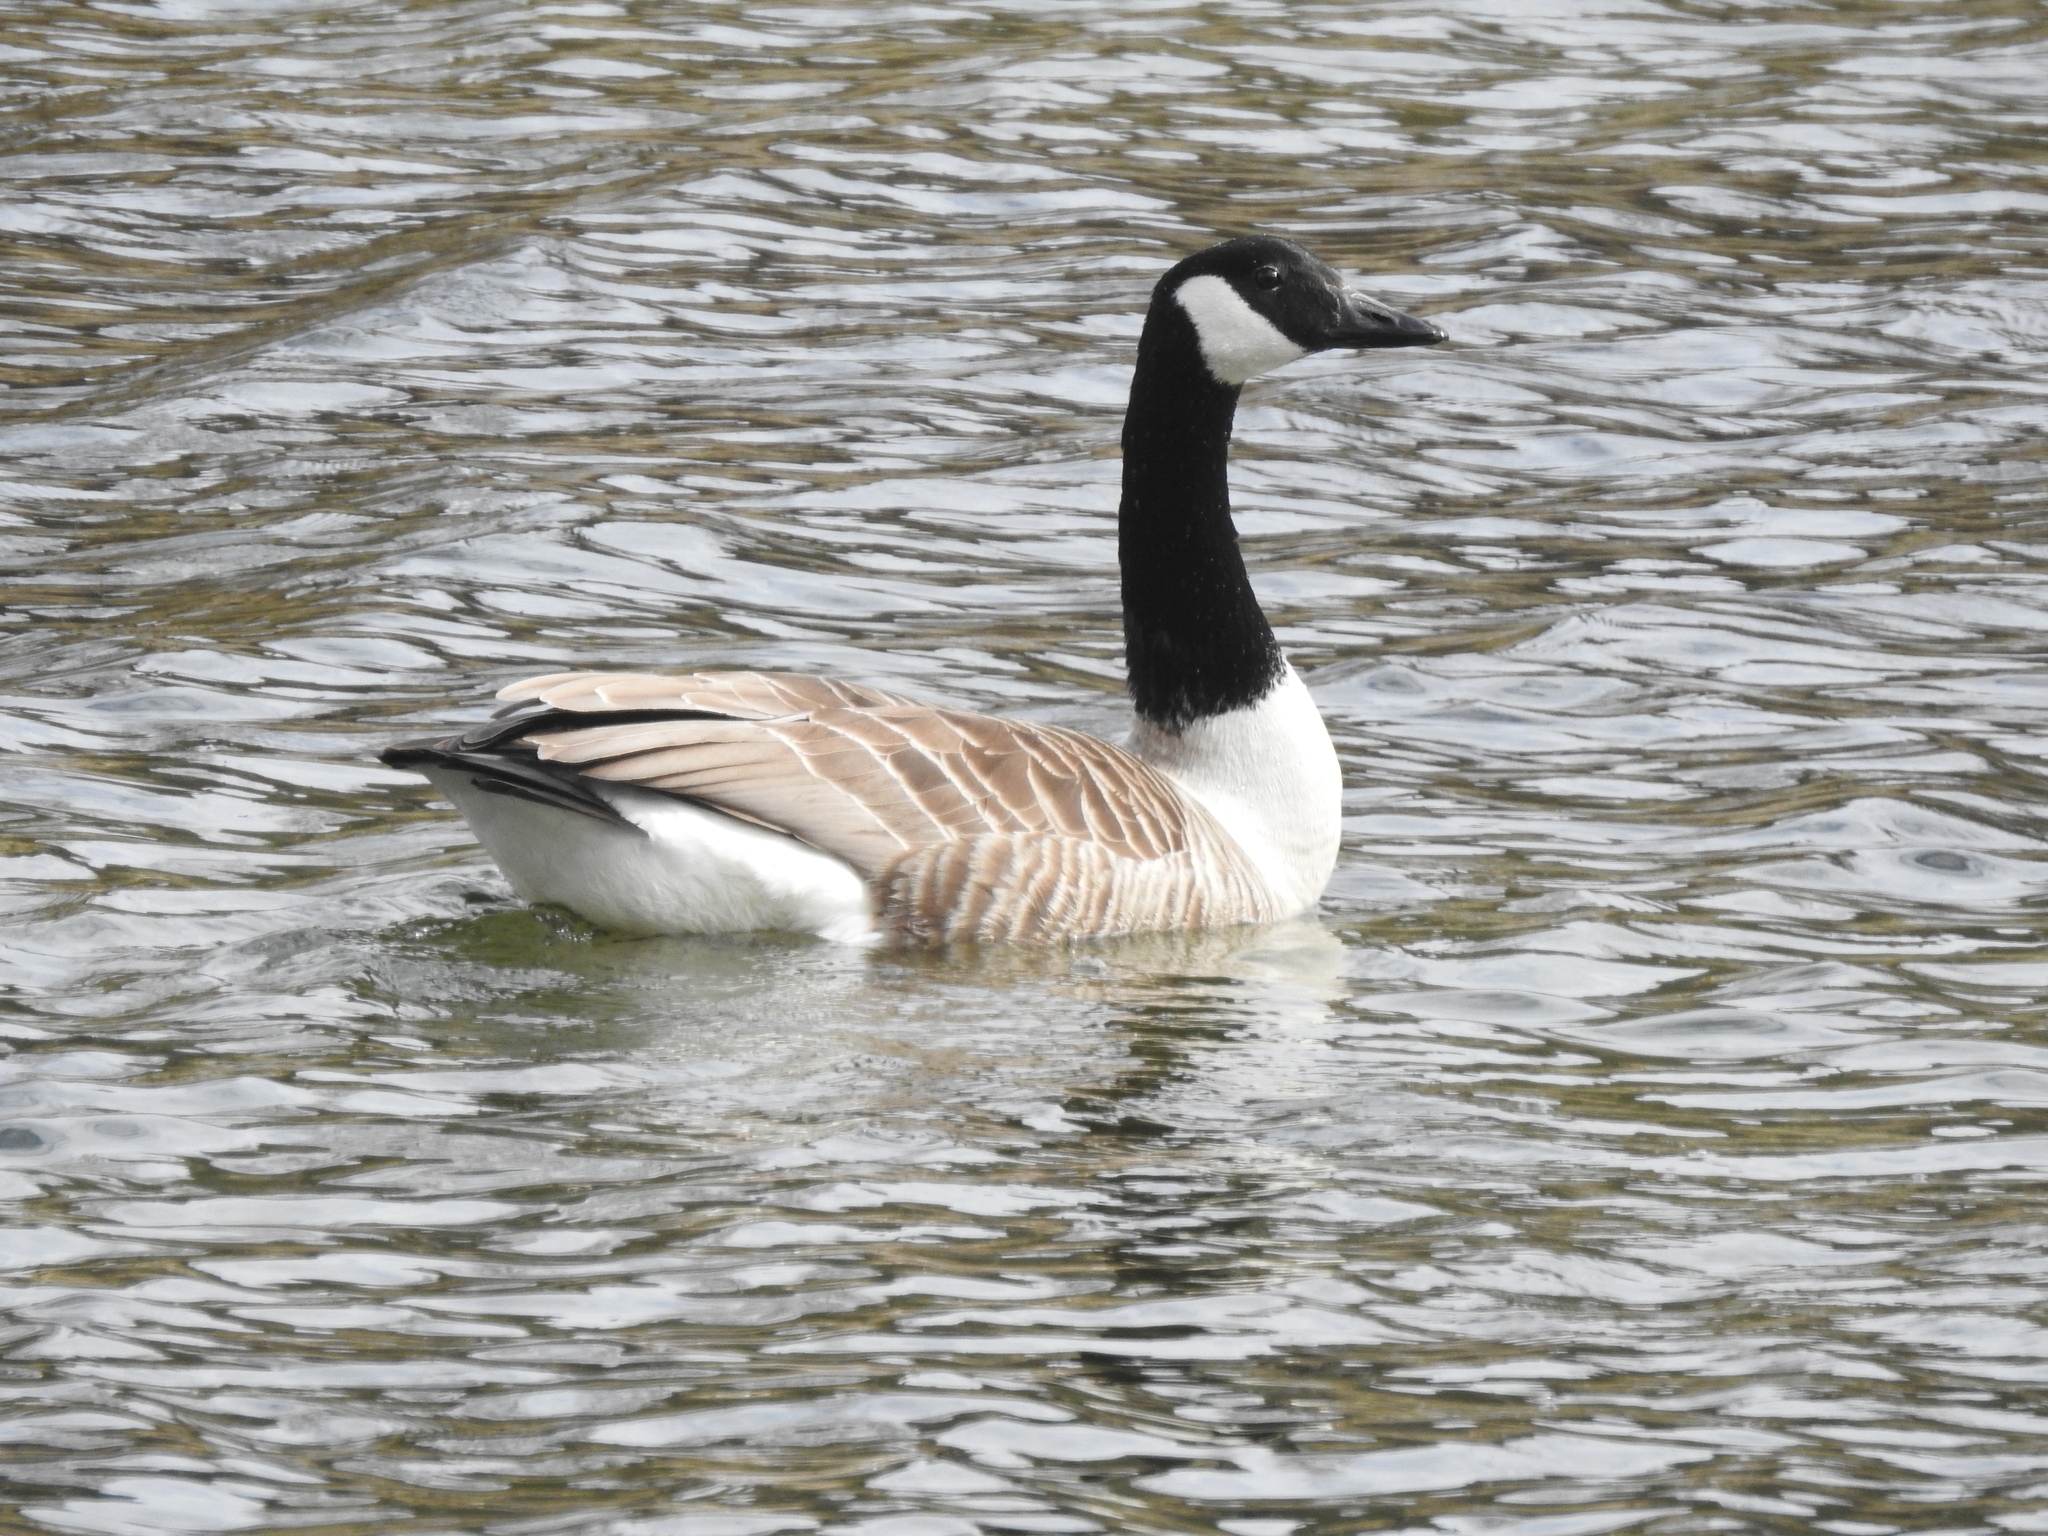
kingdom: Animalia
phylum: Chordata
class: Aves
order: Anseriformes
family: Anatidae
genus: Branta
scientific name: Branta canadensis
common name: Canada goose
